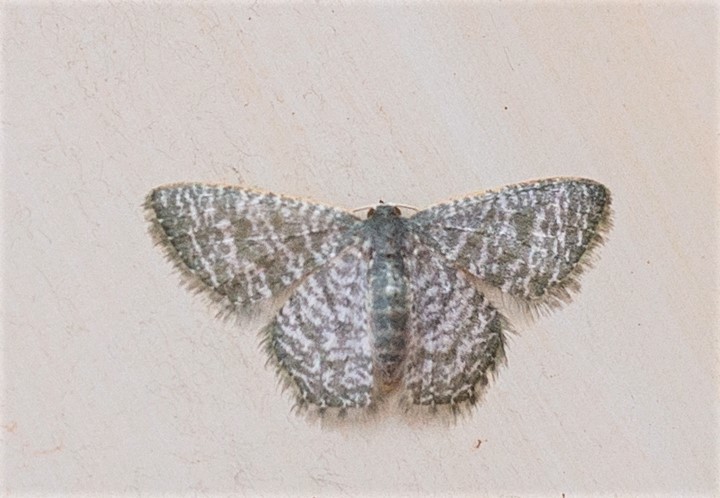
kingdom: Animalia
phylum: Arthropoda
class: Insecta
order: Lepidoptera
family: Geometridae
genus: Chloropteryx
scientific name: Chloropteryx opalaria
